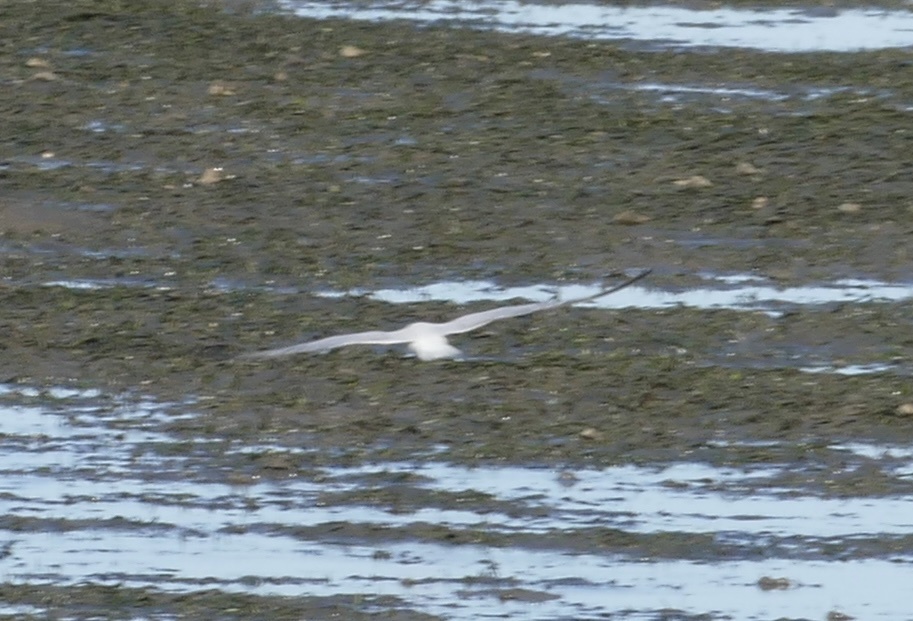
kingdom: Animalia
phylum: Chordata
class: Aves
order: Charadriiformes
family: Laridae
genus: Gelochelidon
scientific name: Gelochelidon macrotarsa
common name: Australian tern
